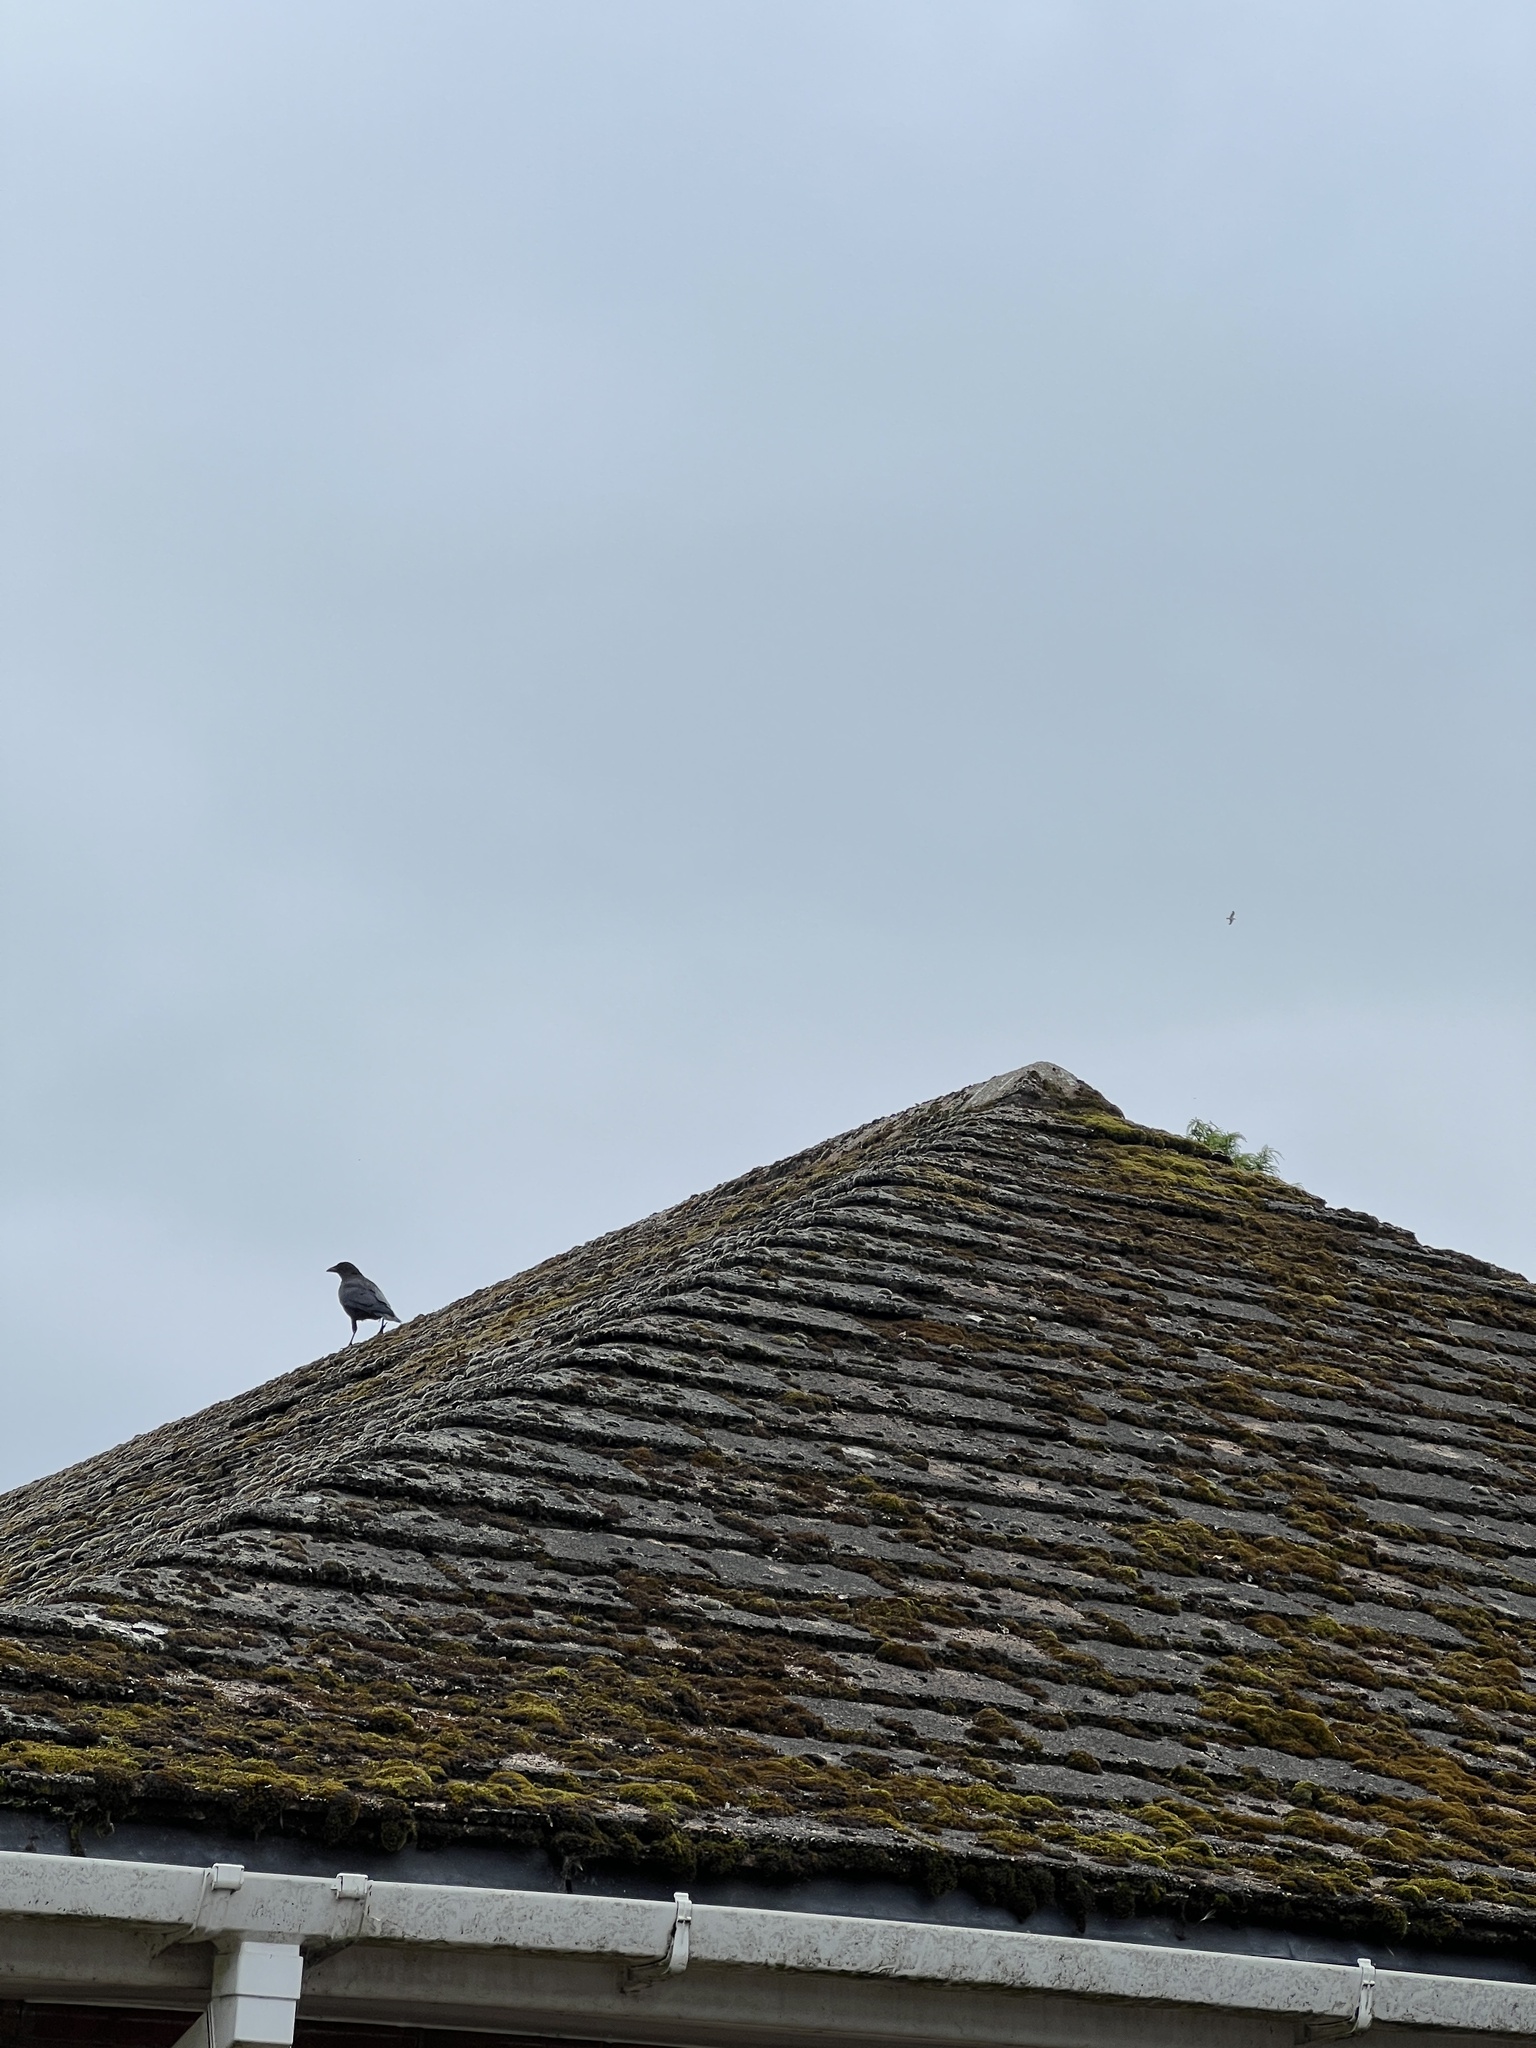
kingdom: Animalia
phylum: Chordata
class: Aves
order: Passeriformes
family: Corvidae
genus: Corvus
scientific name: Corvus corone
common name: Carrion crow
